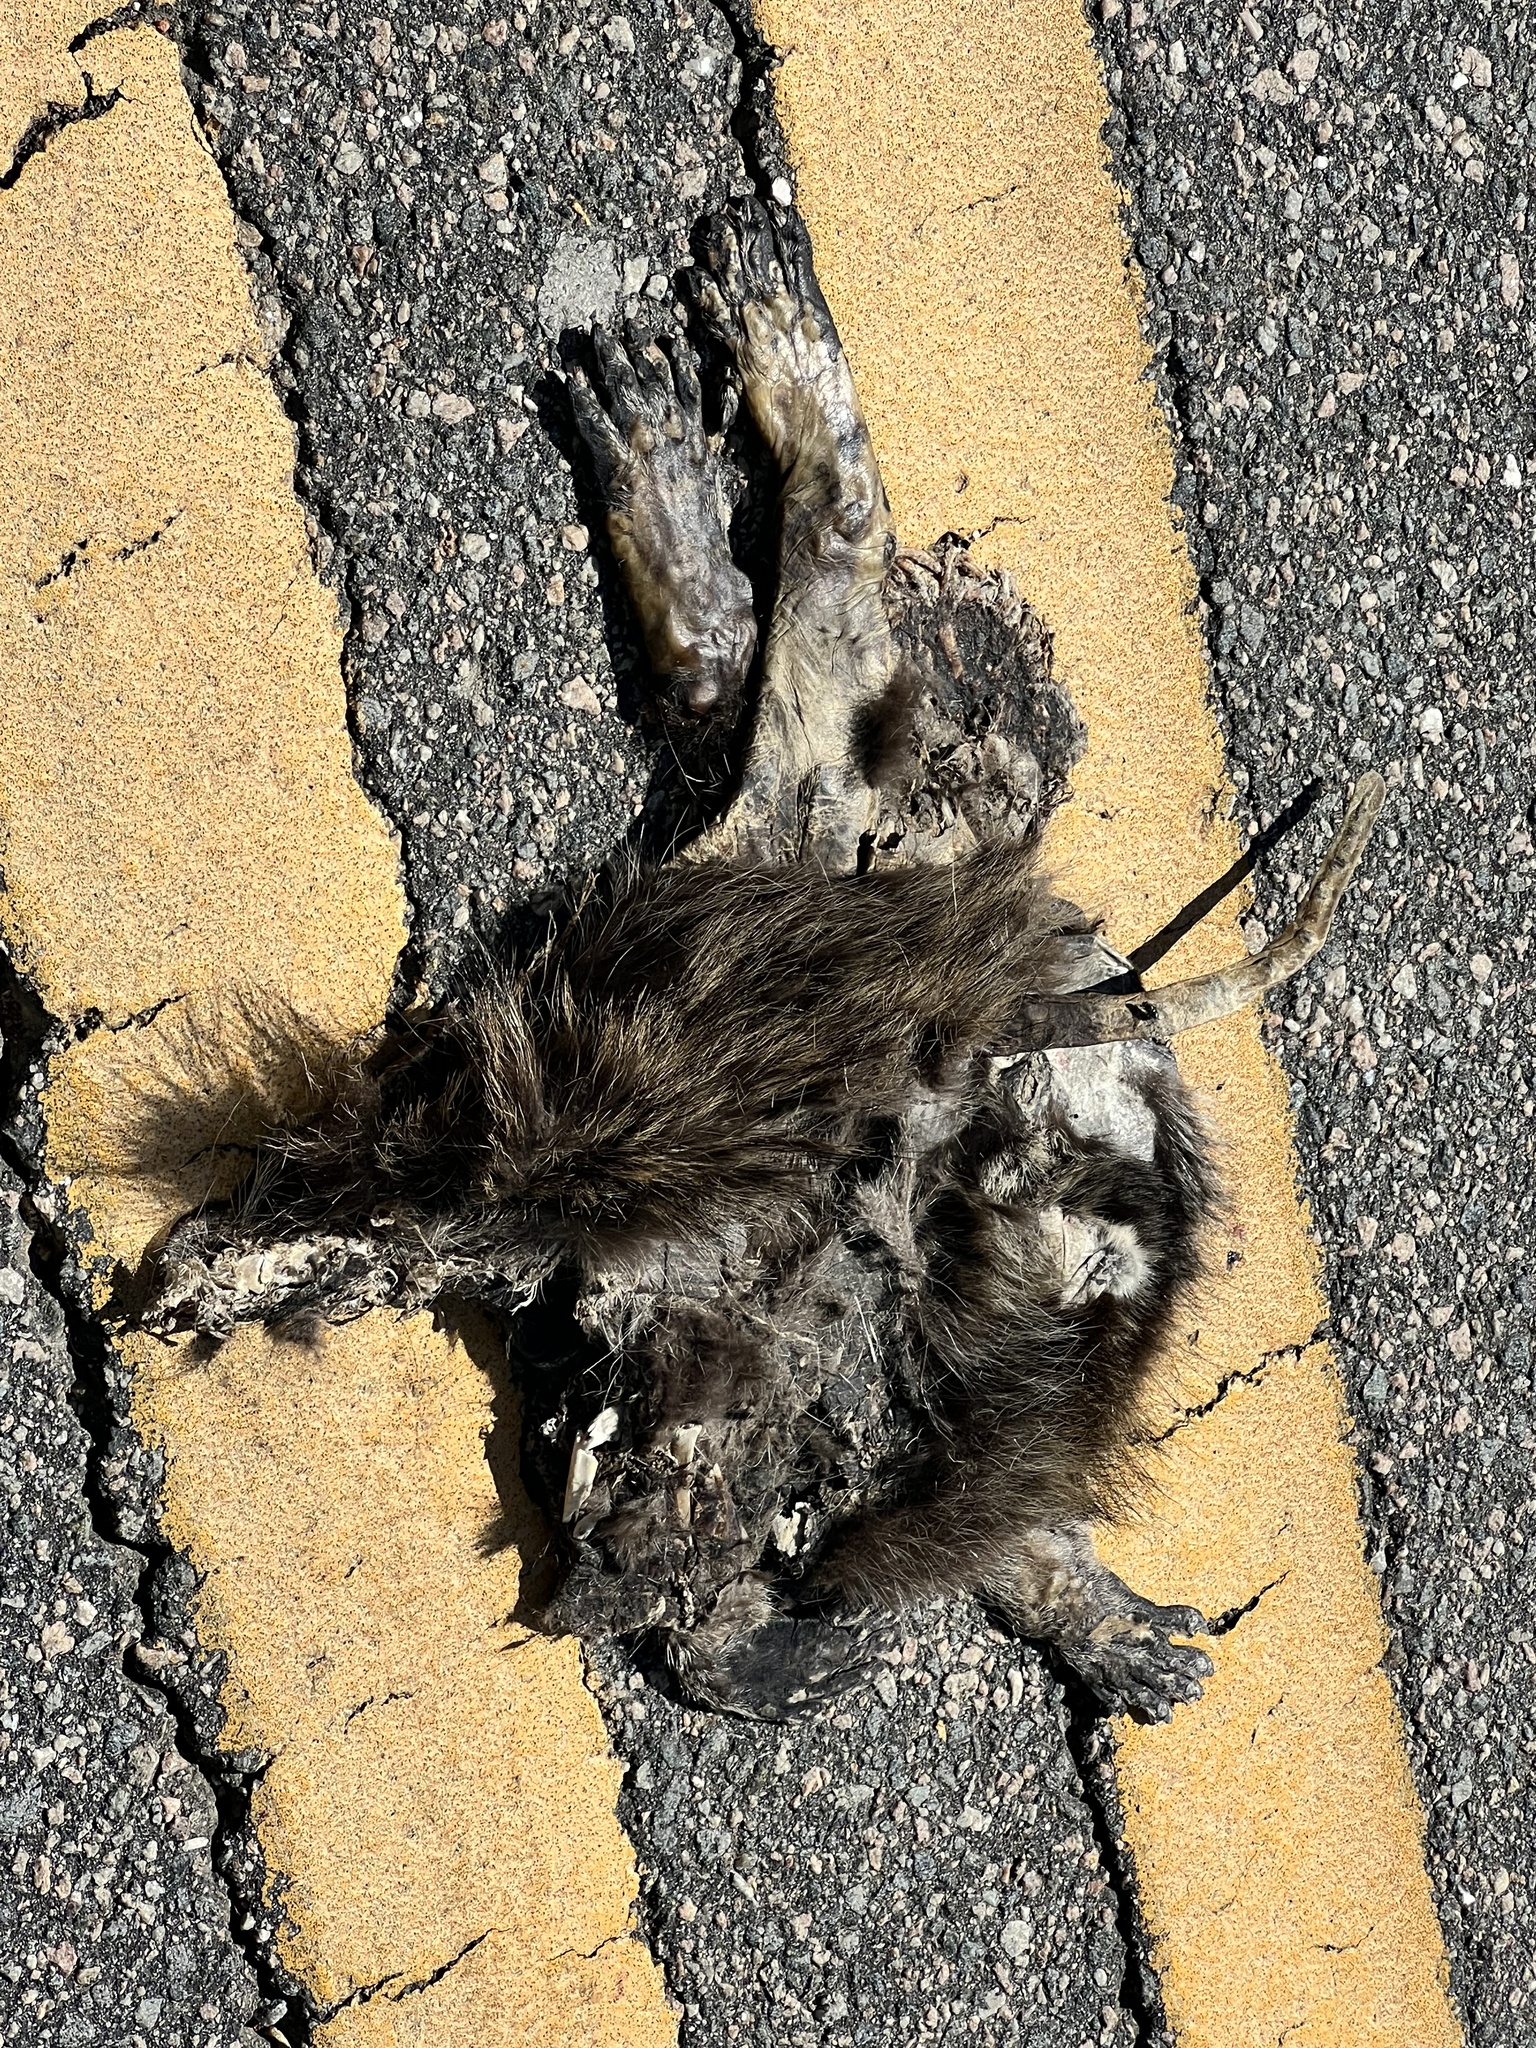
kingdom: Animalia
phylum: Chordata
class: Mammalia
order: Carnivora
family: Procyonidae
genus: Procyon
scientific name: Procyon lotor
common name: Raccoon
